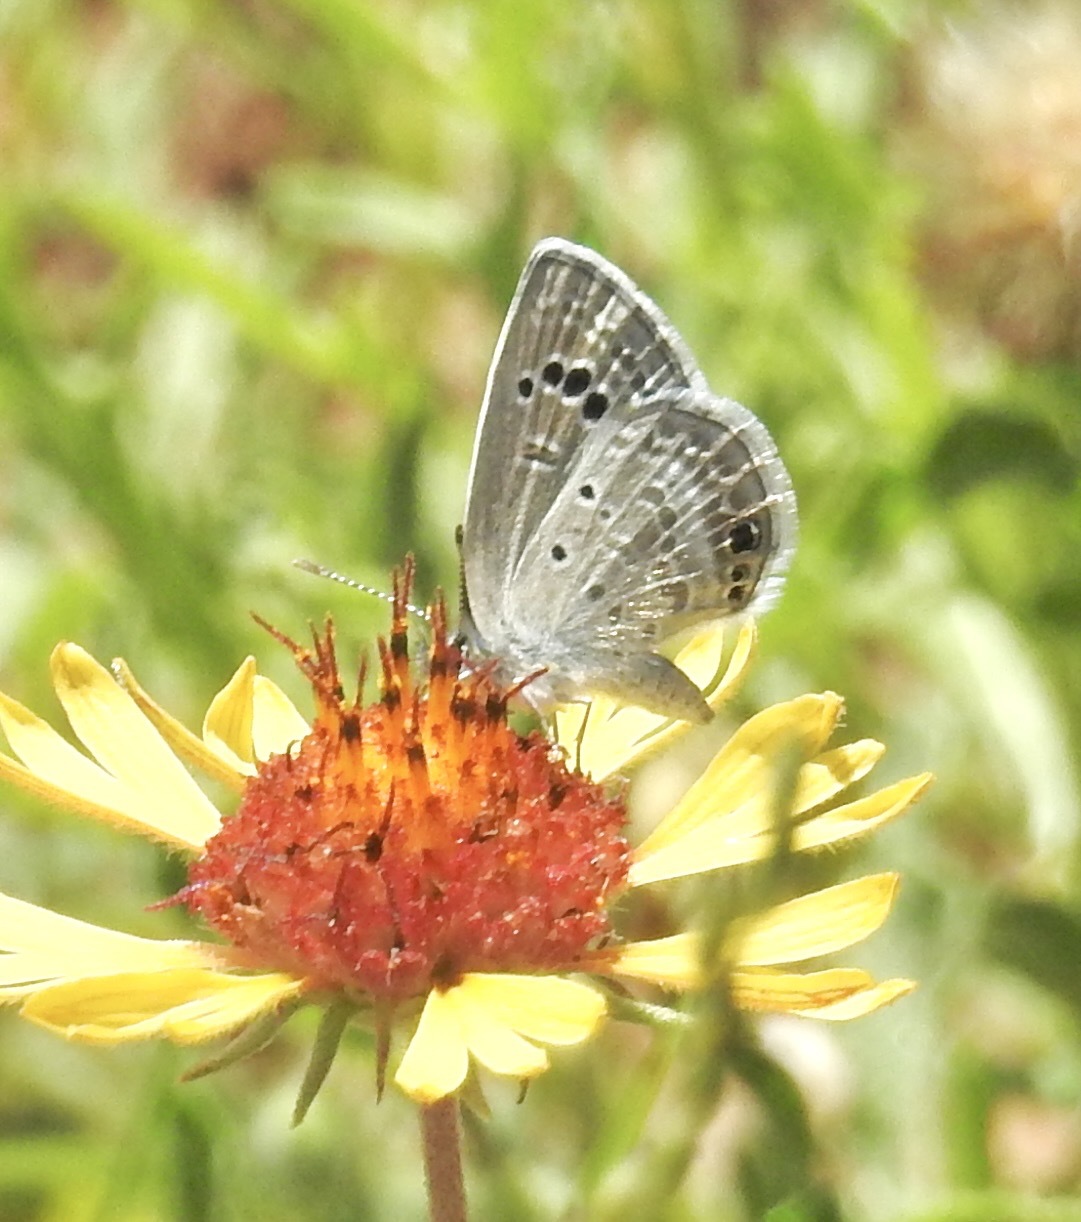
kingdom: Animalia
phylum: Arthropoda
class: Insecta
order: Lepidoptera
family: Lycaenidae
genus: Echinargus
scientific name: Echinargus isola
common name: Reakirt's blue
